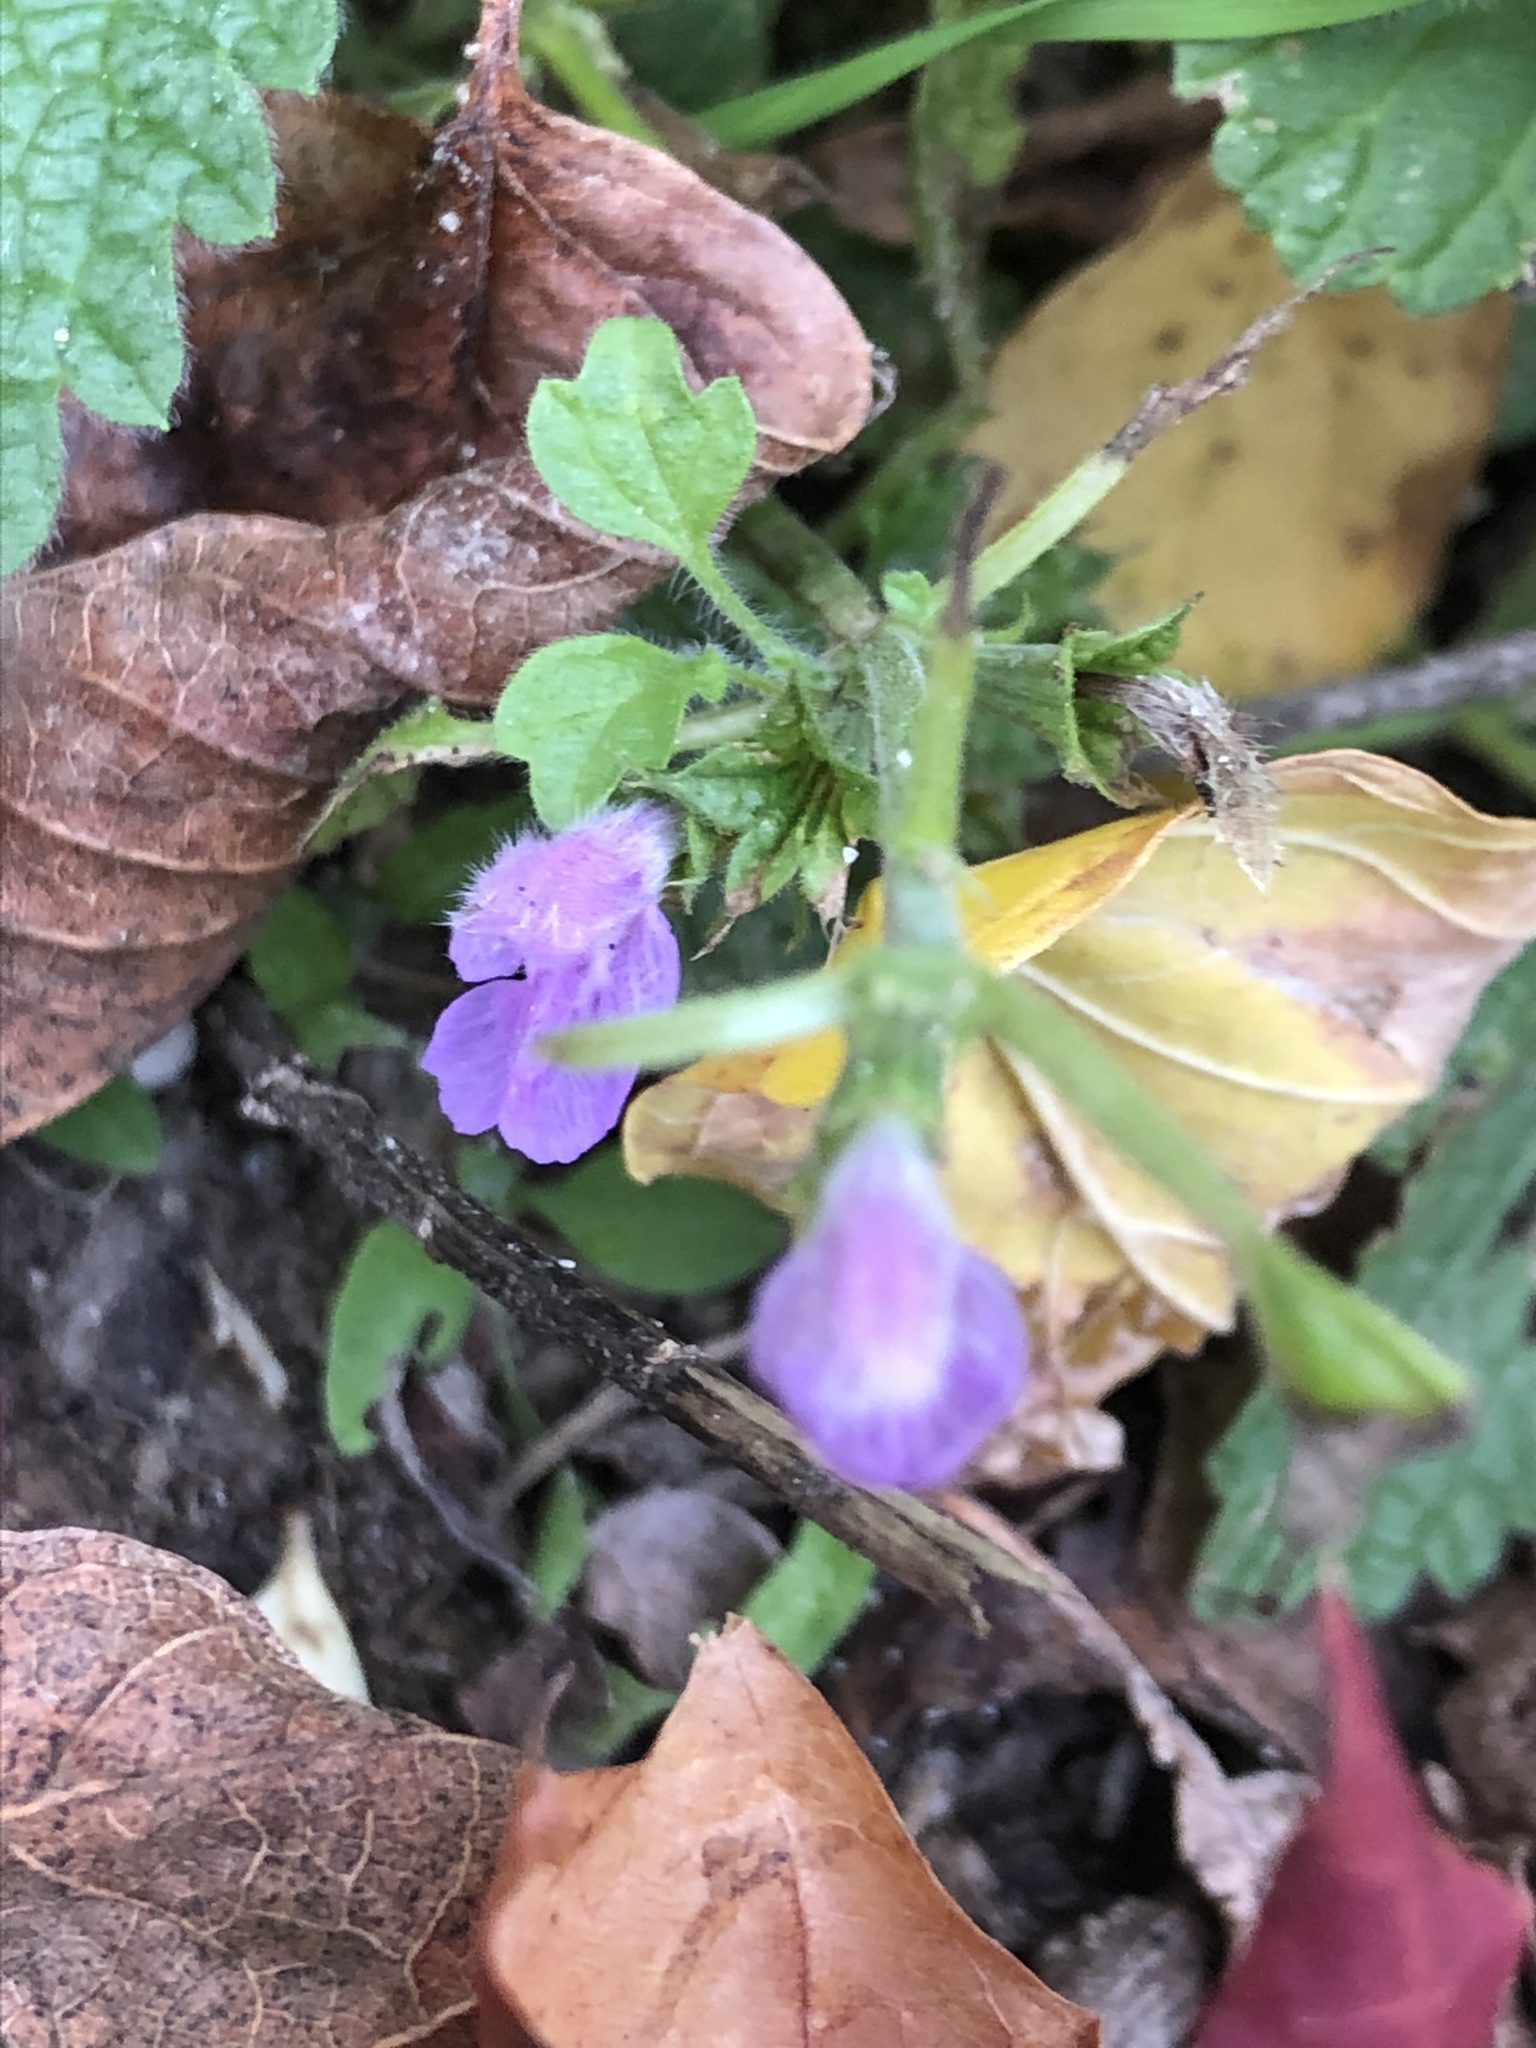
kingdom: Plantae
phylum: Tracheophyta
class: Magnoliopsida
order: Lamiales
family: Lamiaceae
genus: Ballota
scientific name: Ballota nigra
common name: Black horehound
